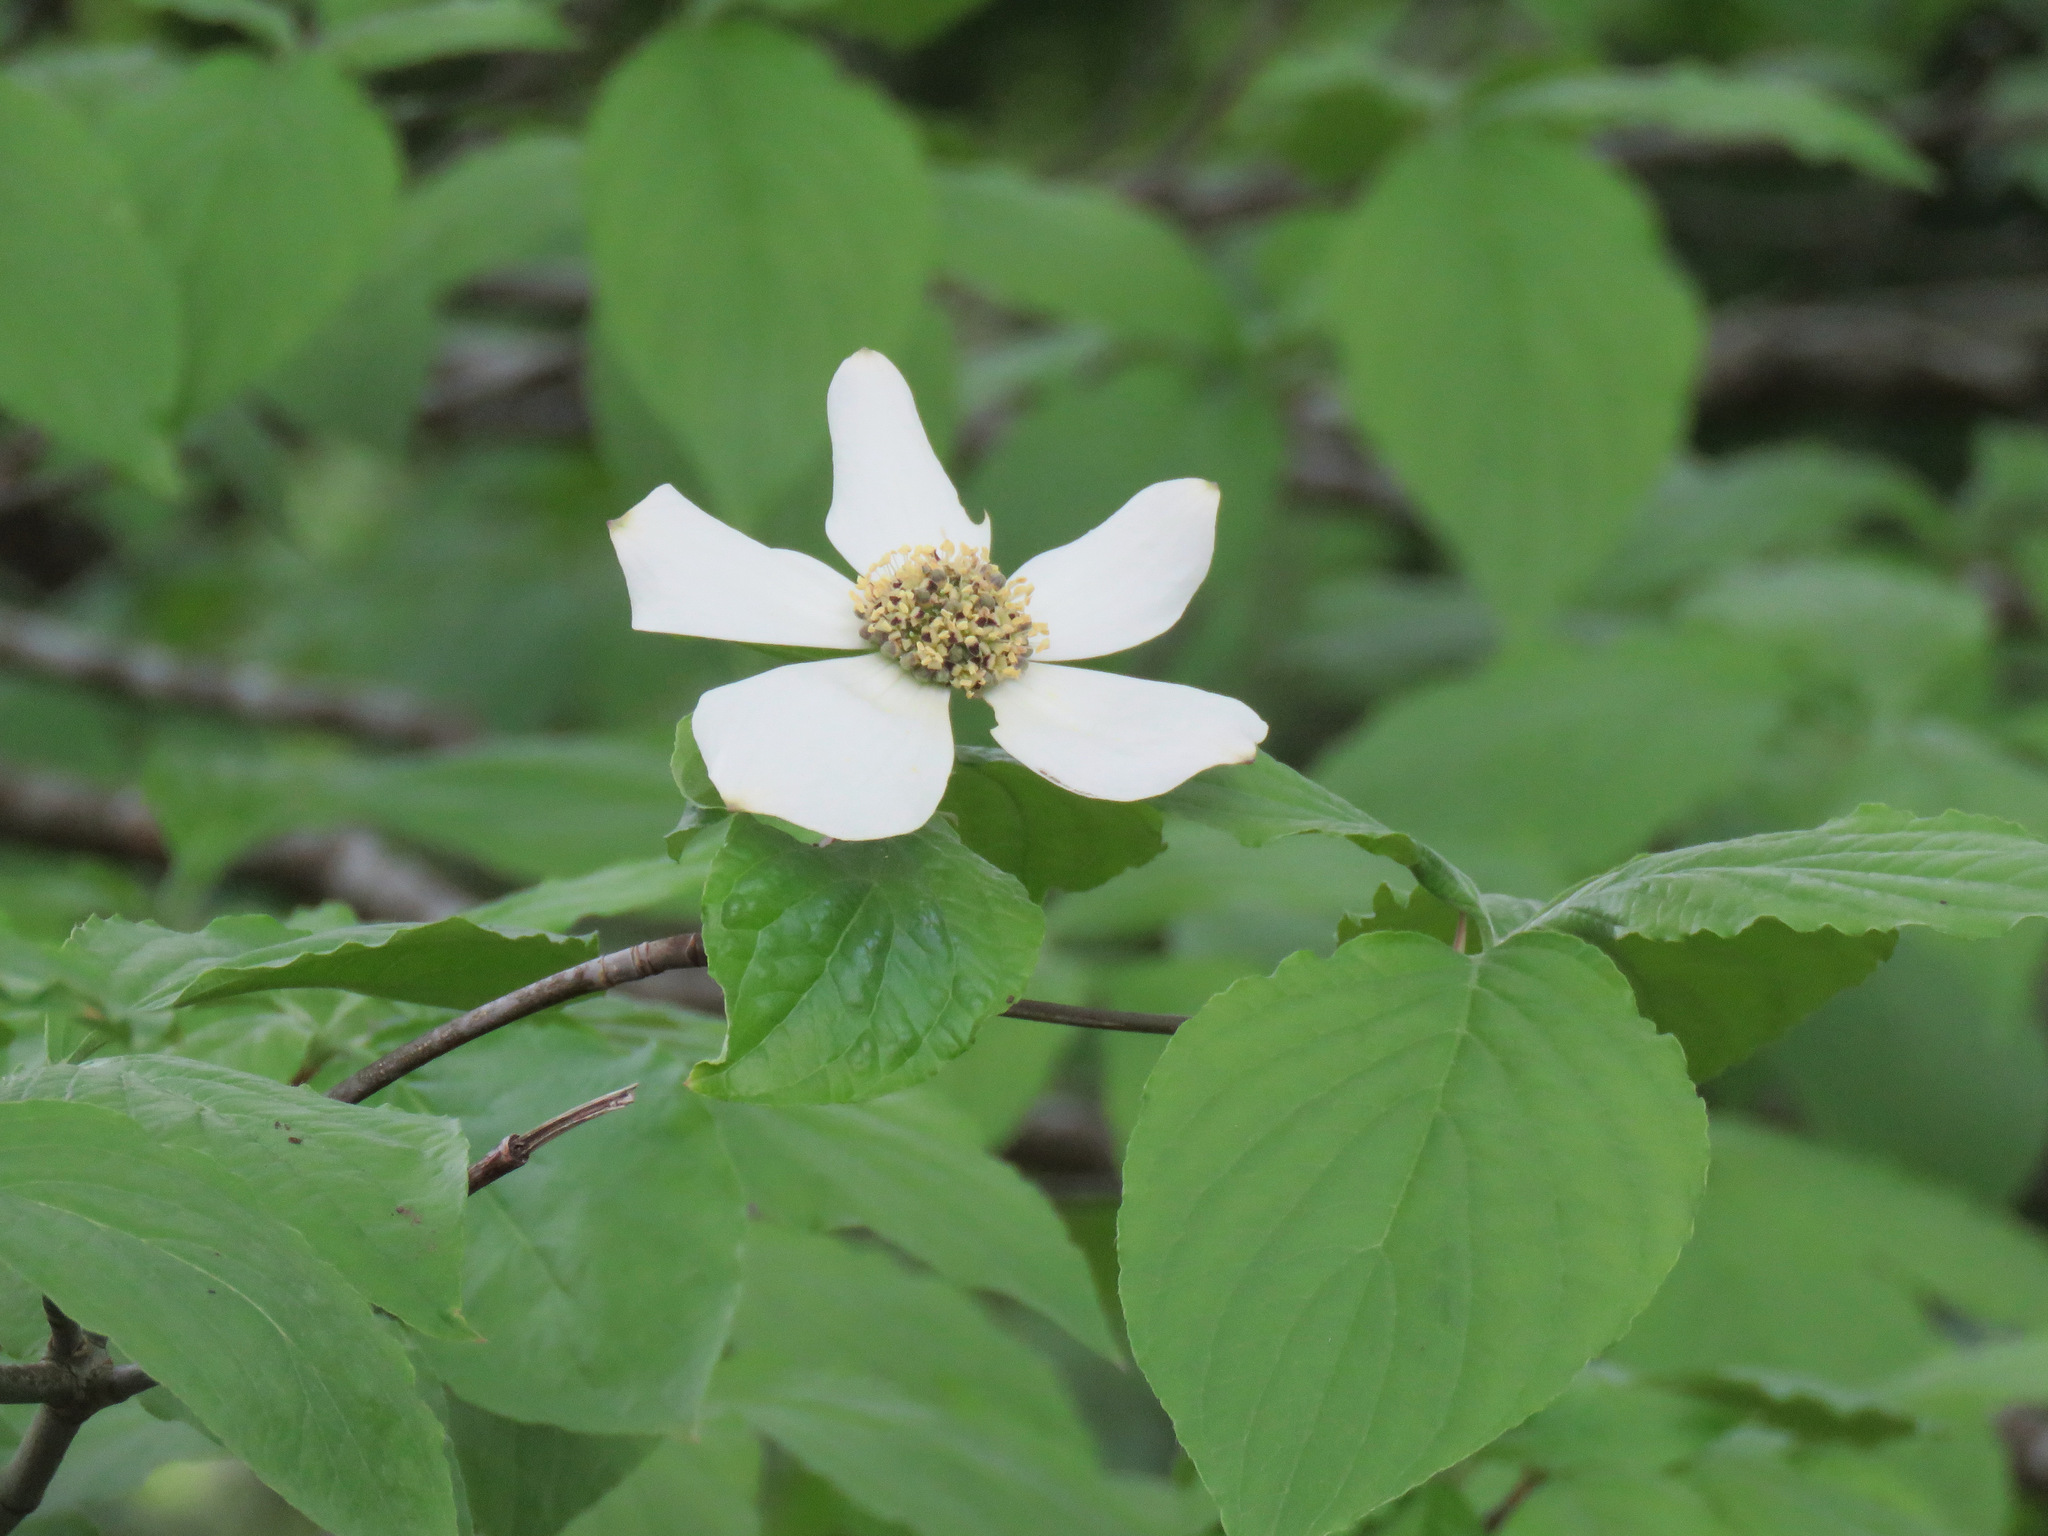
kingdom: Plantae
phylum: Tracheophyta
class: Magnoliopsida
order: Cornales
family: Cornaceae
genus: Cornus
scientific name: Cornus nuttallii
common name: Pacific dogwood
